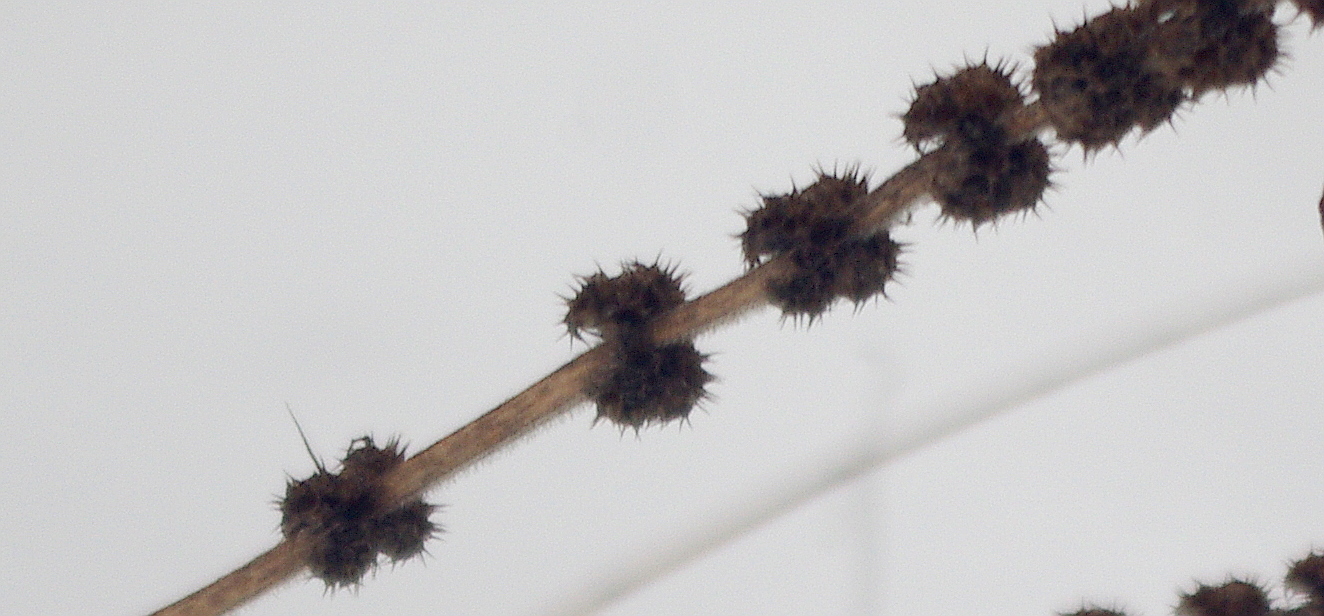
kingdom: Plantae
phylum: Tracheophyta
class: Magnoliopsida
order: Lamiales
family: Lamiaceae
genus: Leonurus
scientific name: Leonurus quinquelobatus
